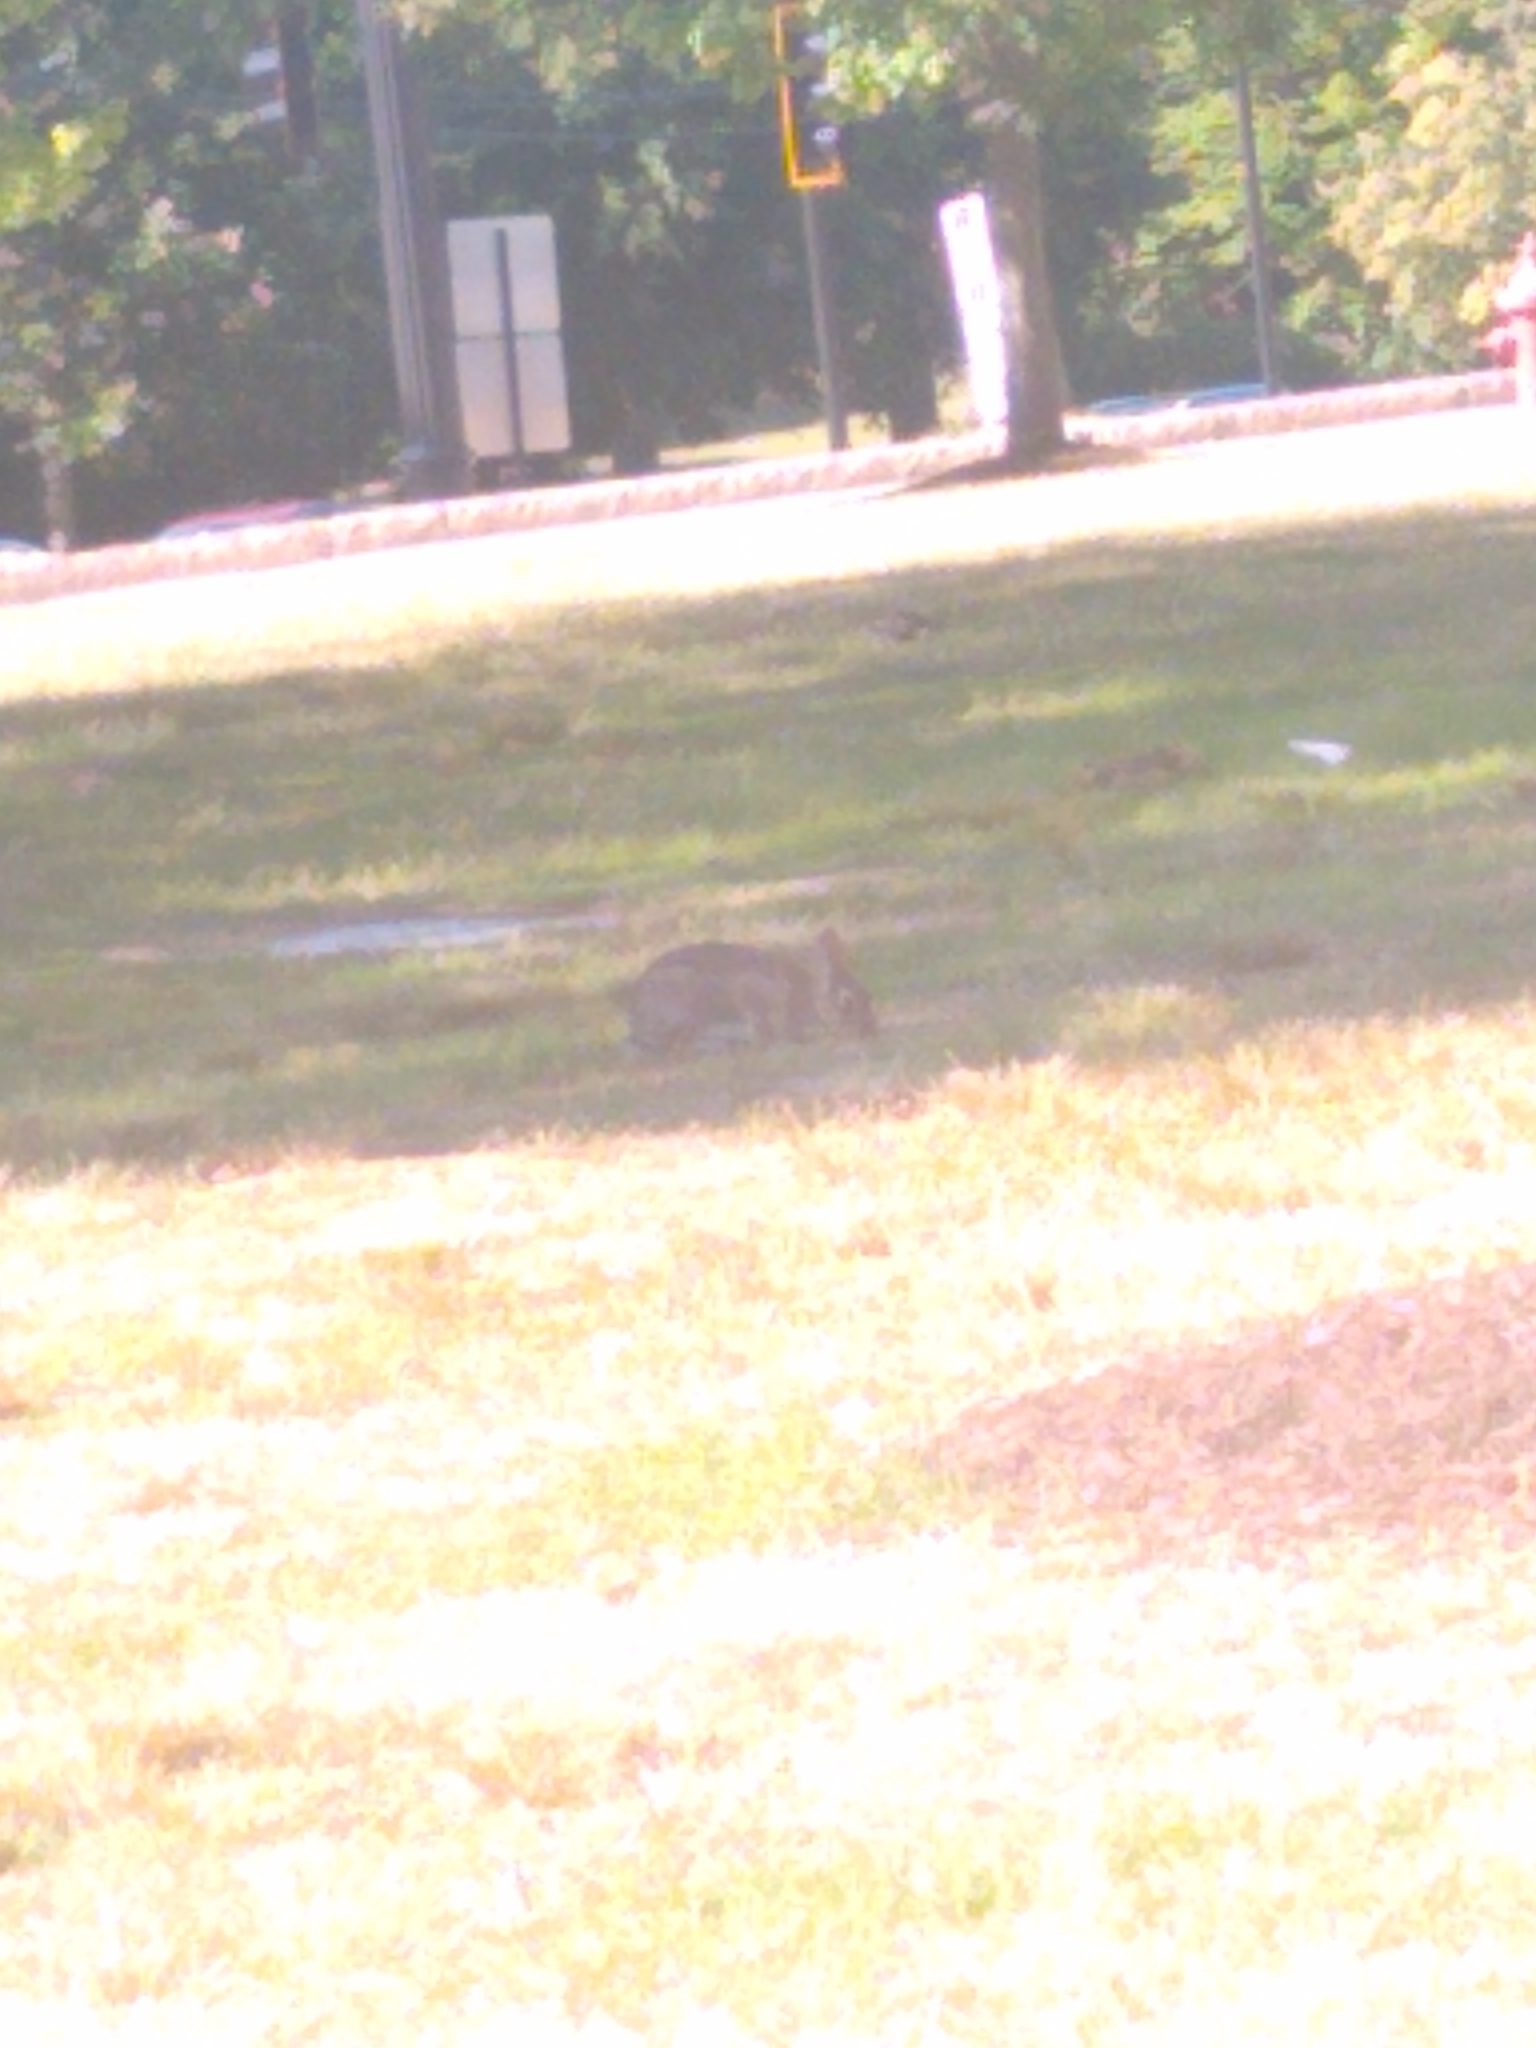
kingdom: Animalia
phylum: Chordata
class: Mammalia
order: Lagomorpha
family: Leporidae
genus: Sylvilagus
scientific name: Sylvilagus floridanus
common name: Eastern cottontail
